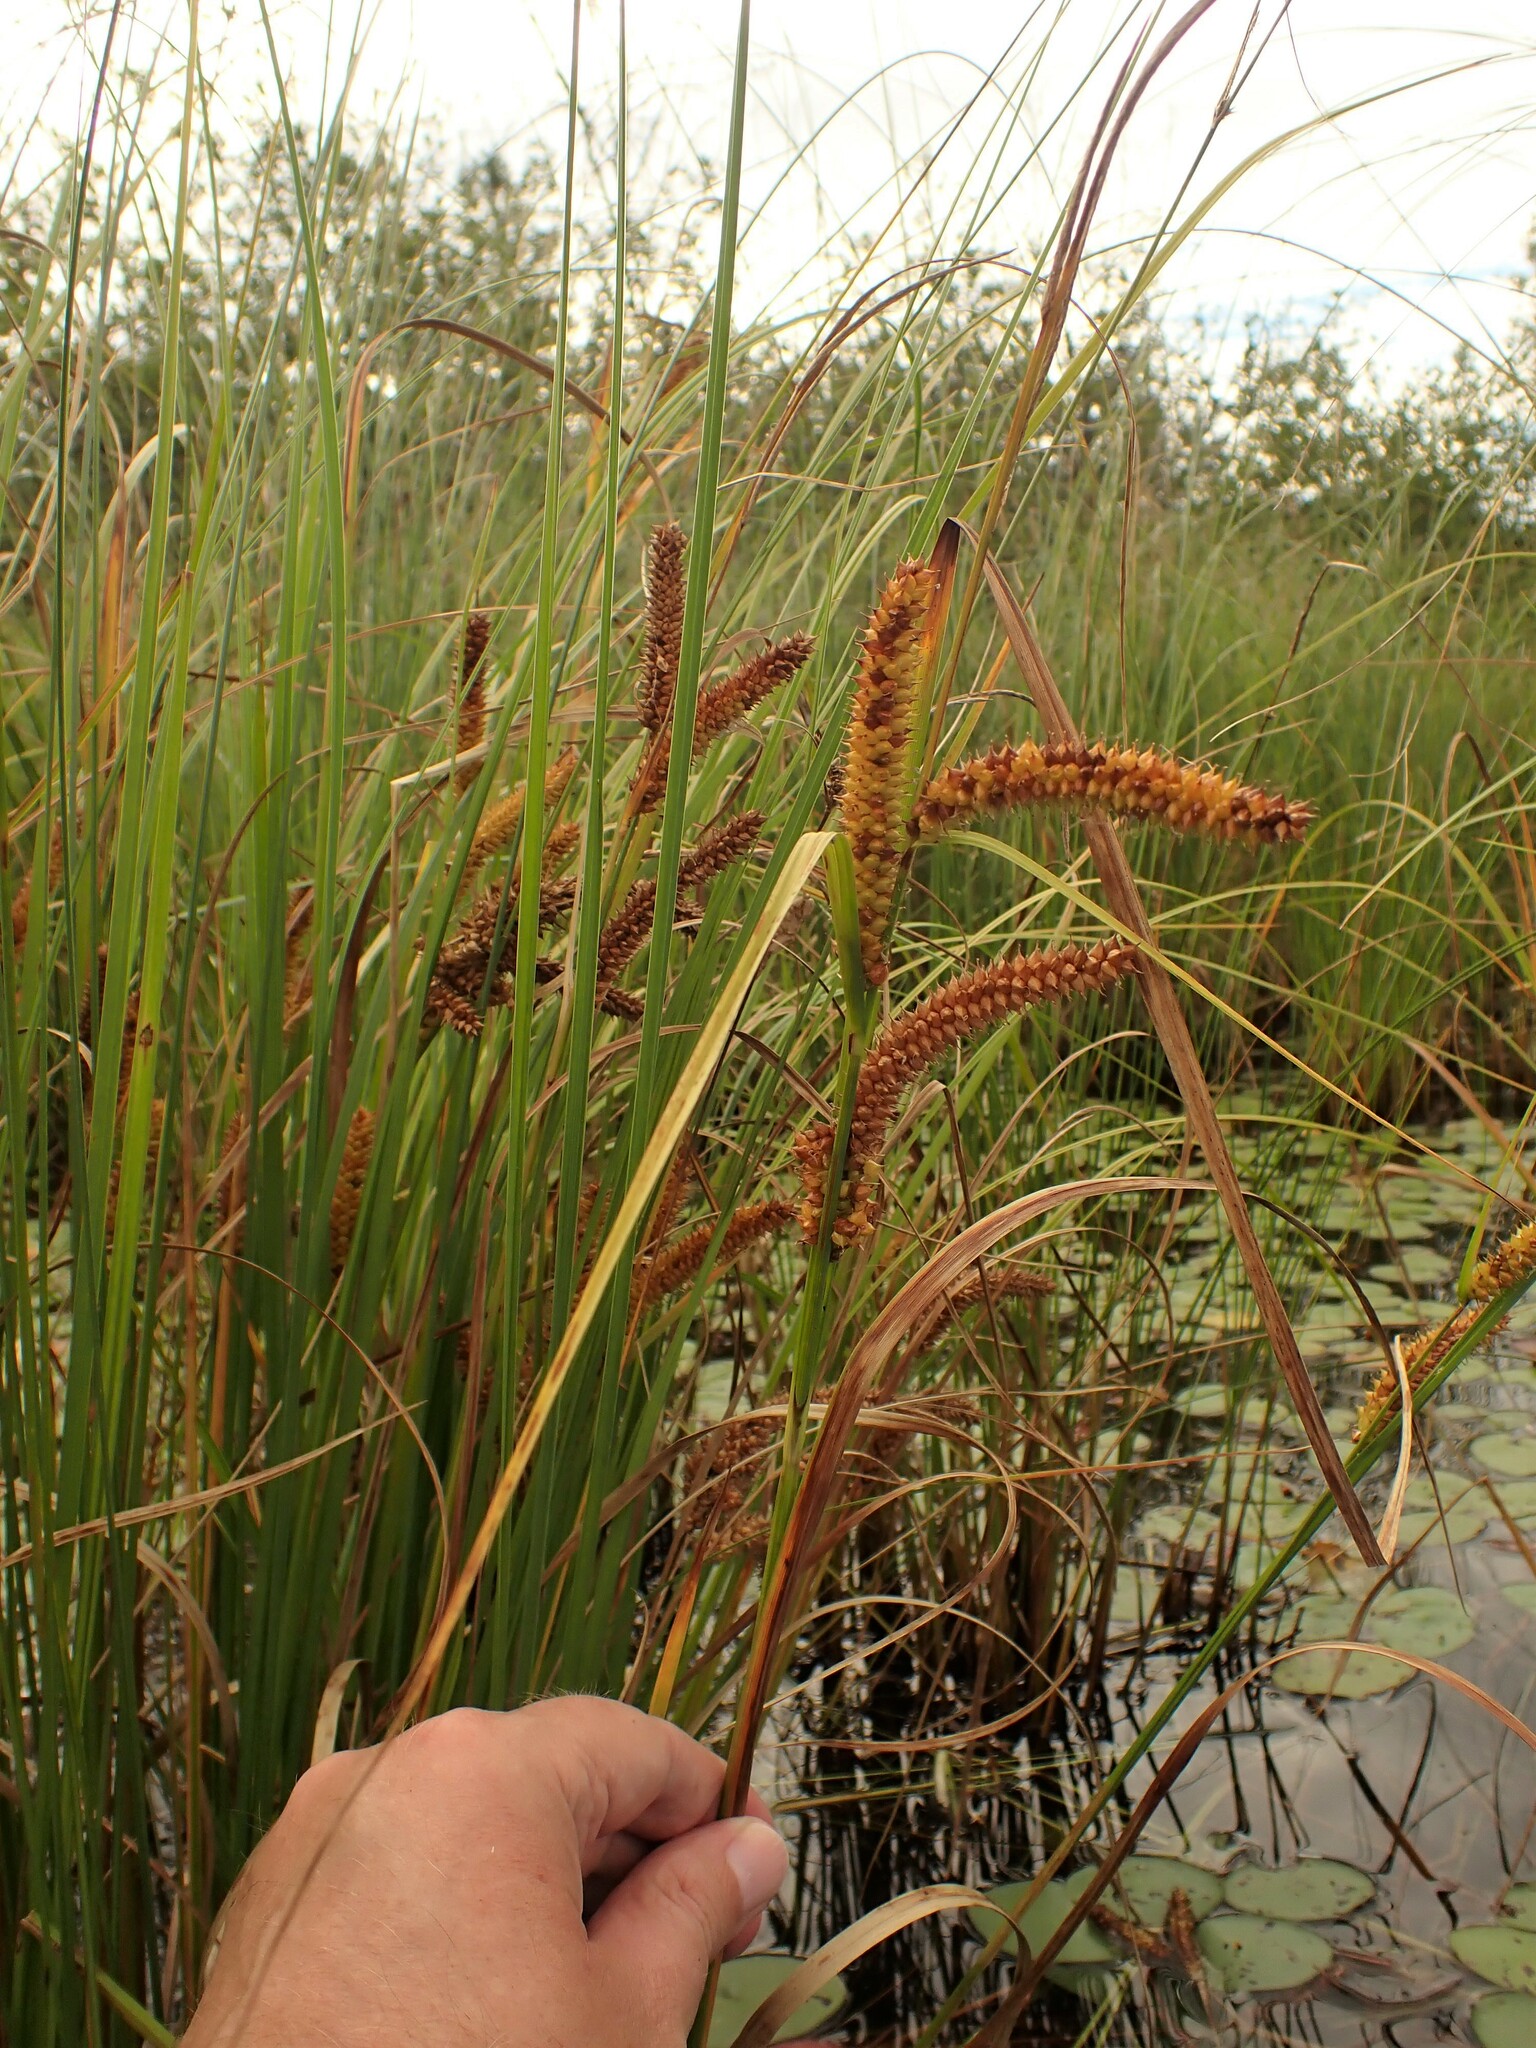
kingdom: Plantae
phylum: Tracheophyta
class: Liliopsida
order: Poales
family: Cyperaceae
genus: Carex
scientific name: Carex utriculata
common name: Beaked sedge
